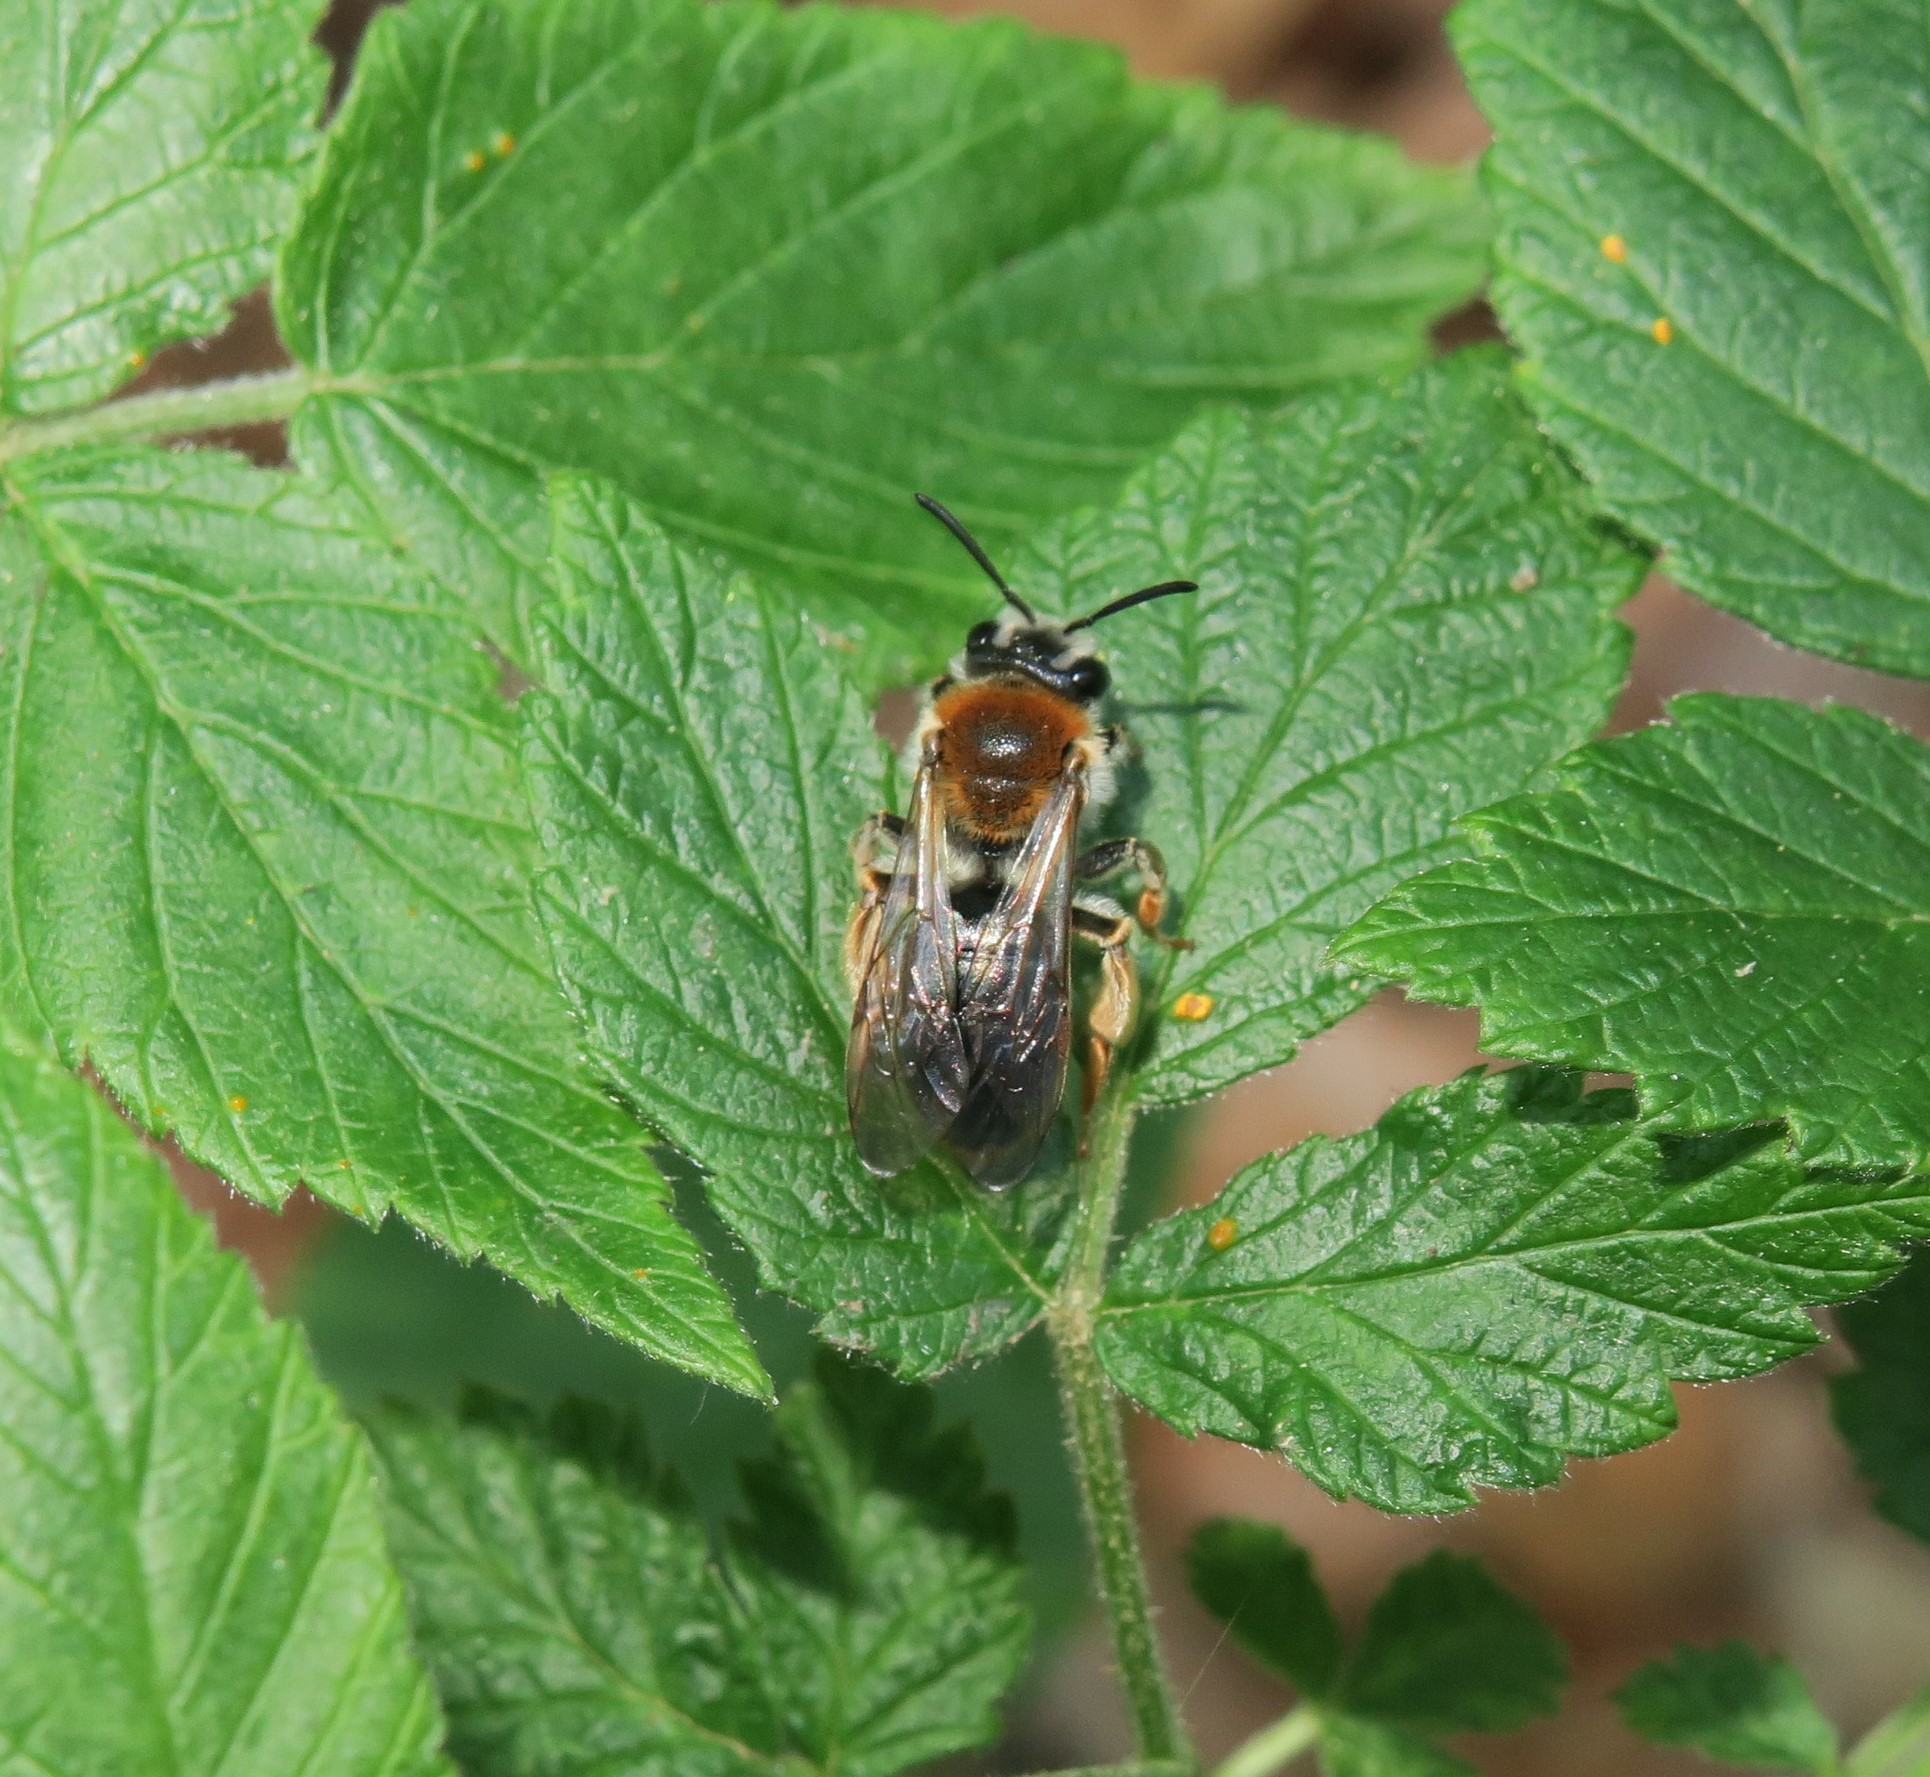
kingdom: Animalia
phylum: Arthropoda
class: Insecta
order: Hymenoptera
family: Andrenidae
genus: Andrena
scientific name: Andrena haemorrhoa
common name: Early mining bee
